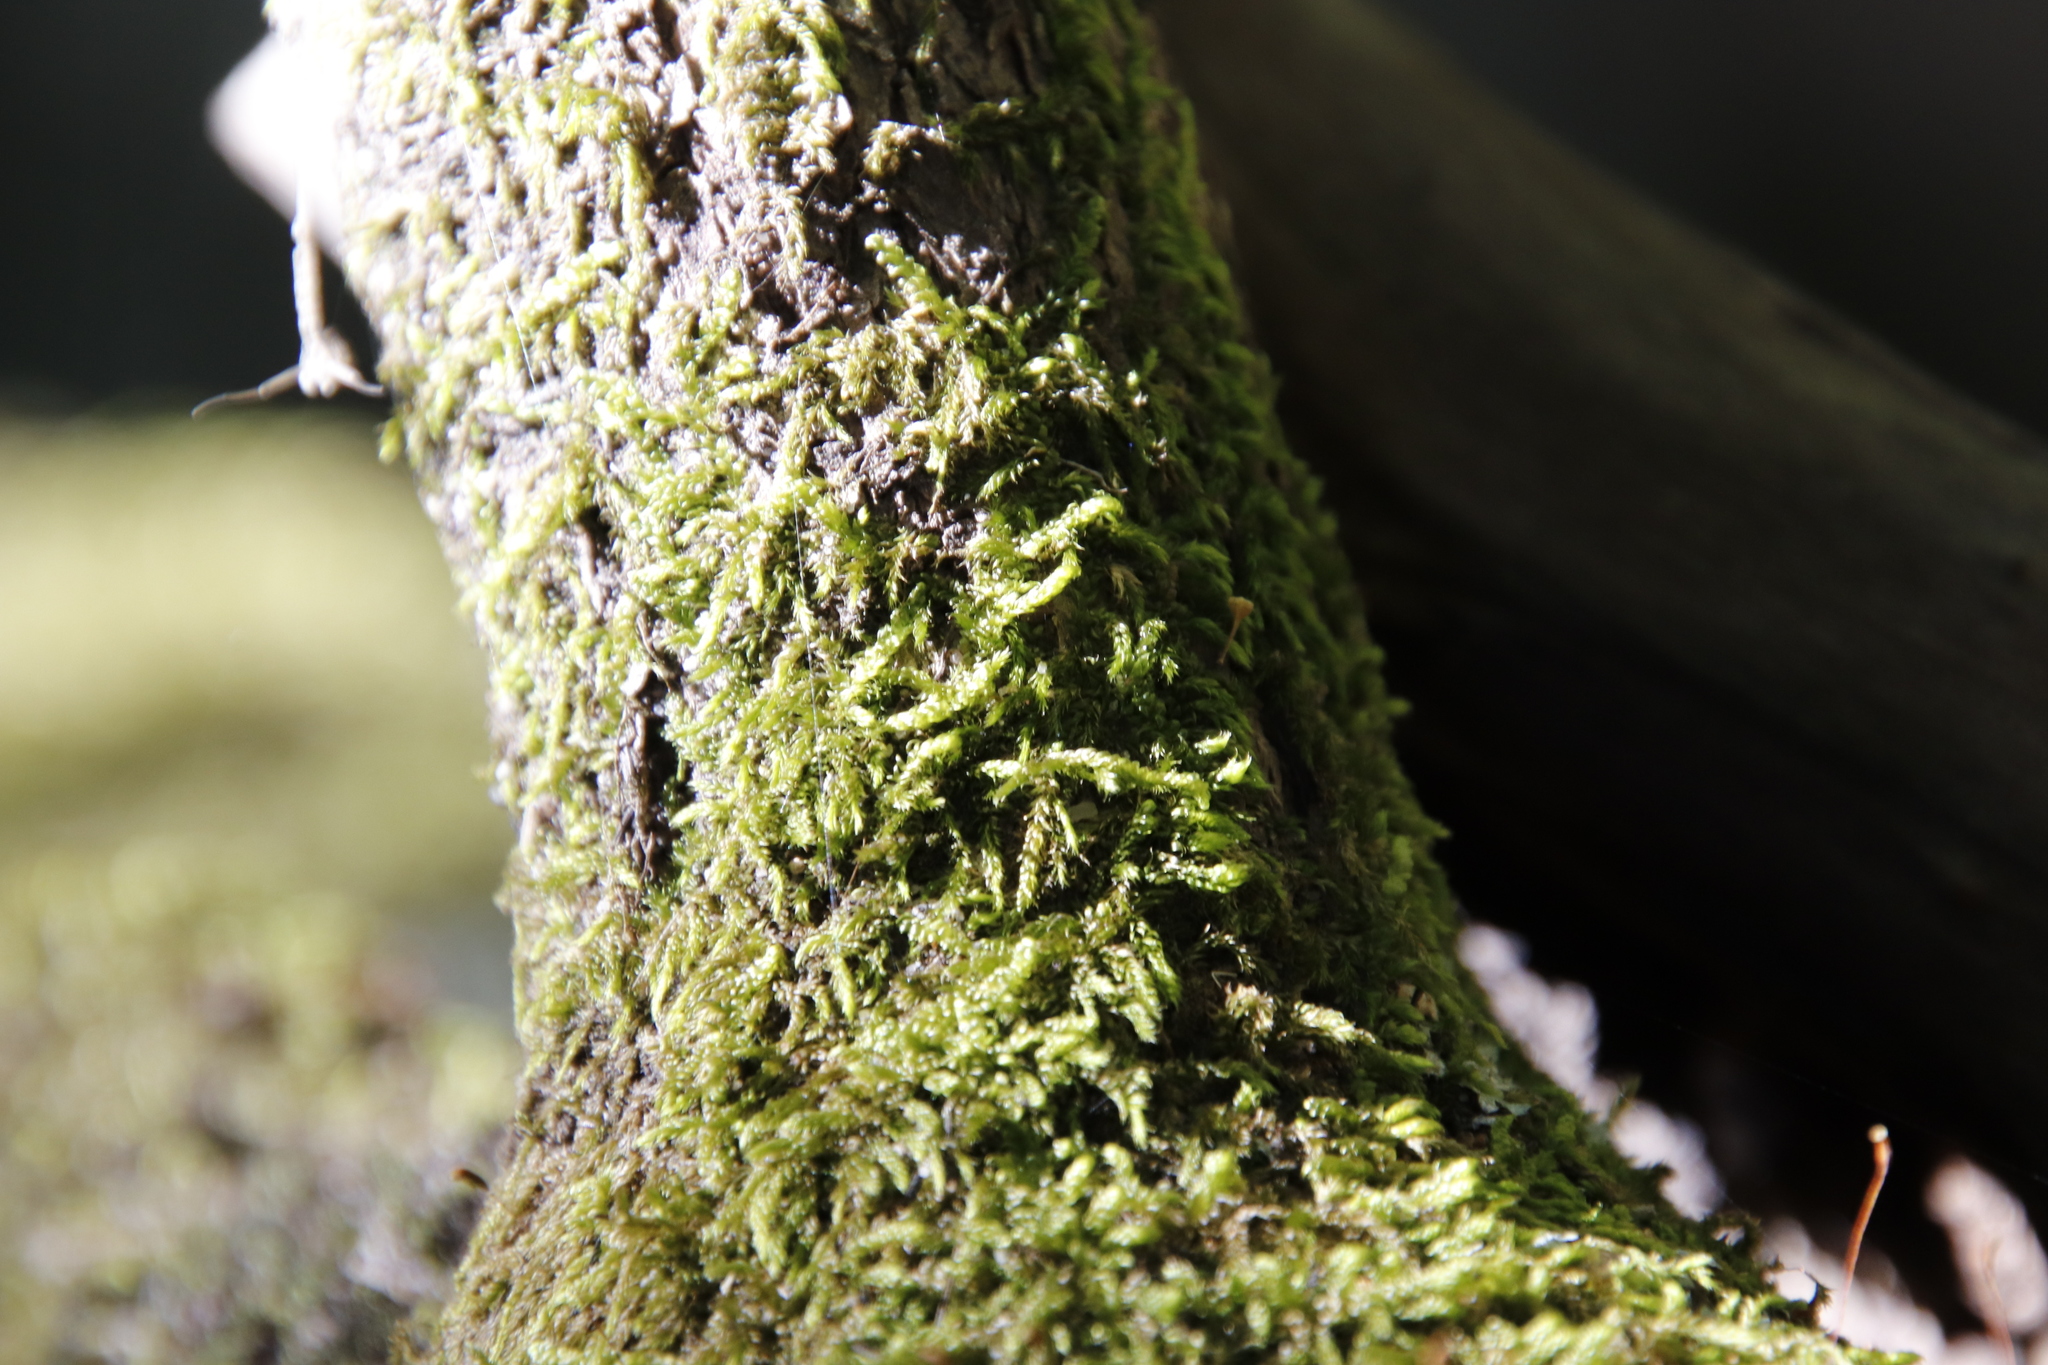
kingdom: Plantae
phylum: Bryophyta
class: Bryopsida
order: Hypnales
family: Hypnaceae
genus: Hypnum
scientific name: Hypnum cupressiforme
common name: Cypress-leaved plait-moss
